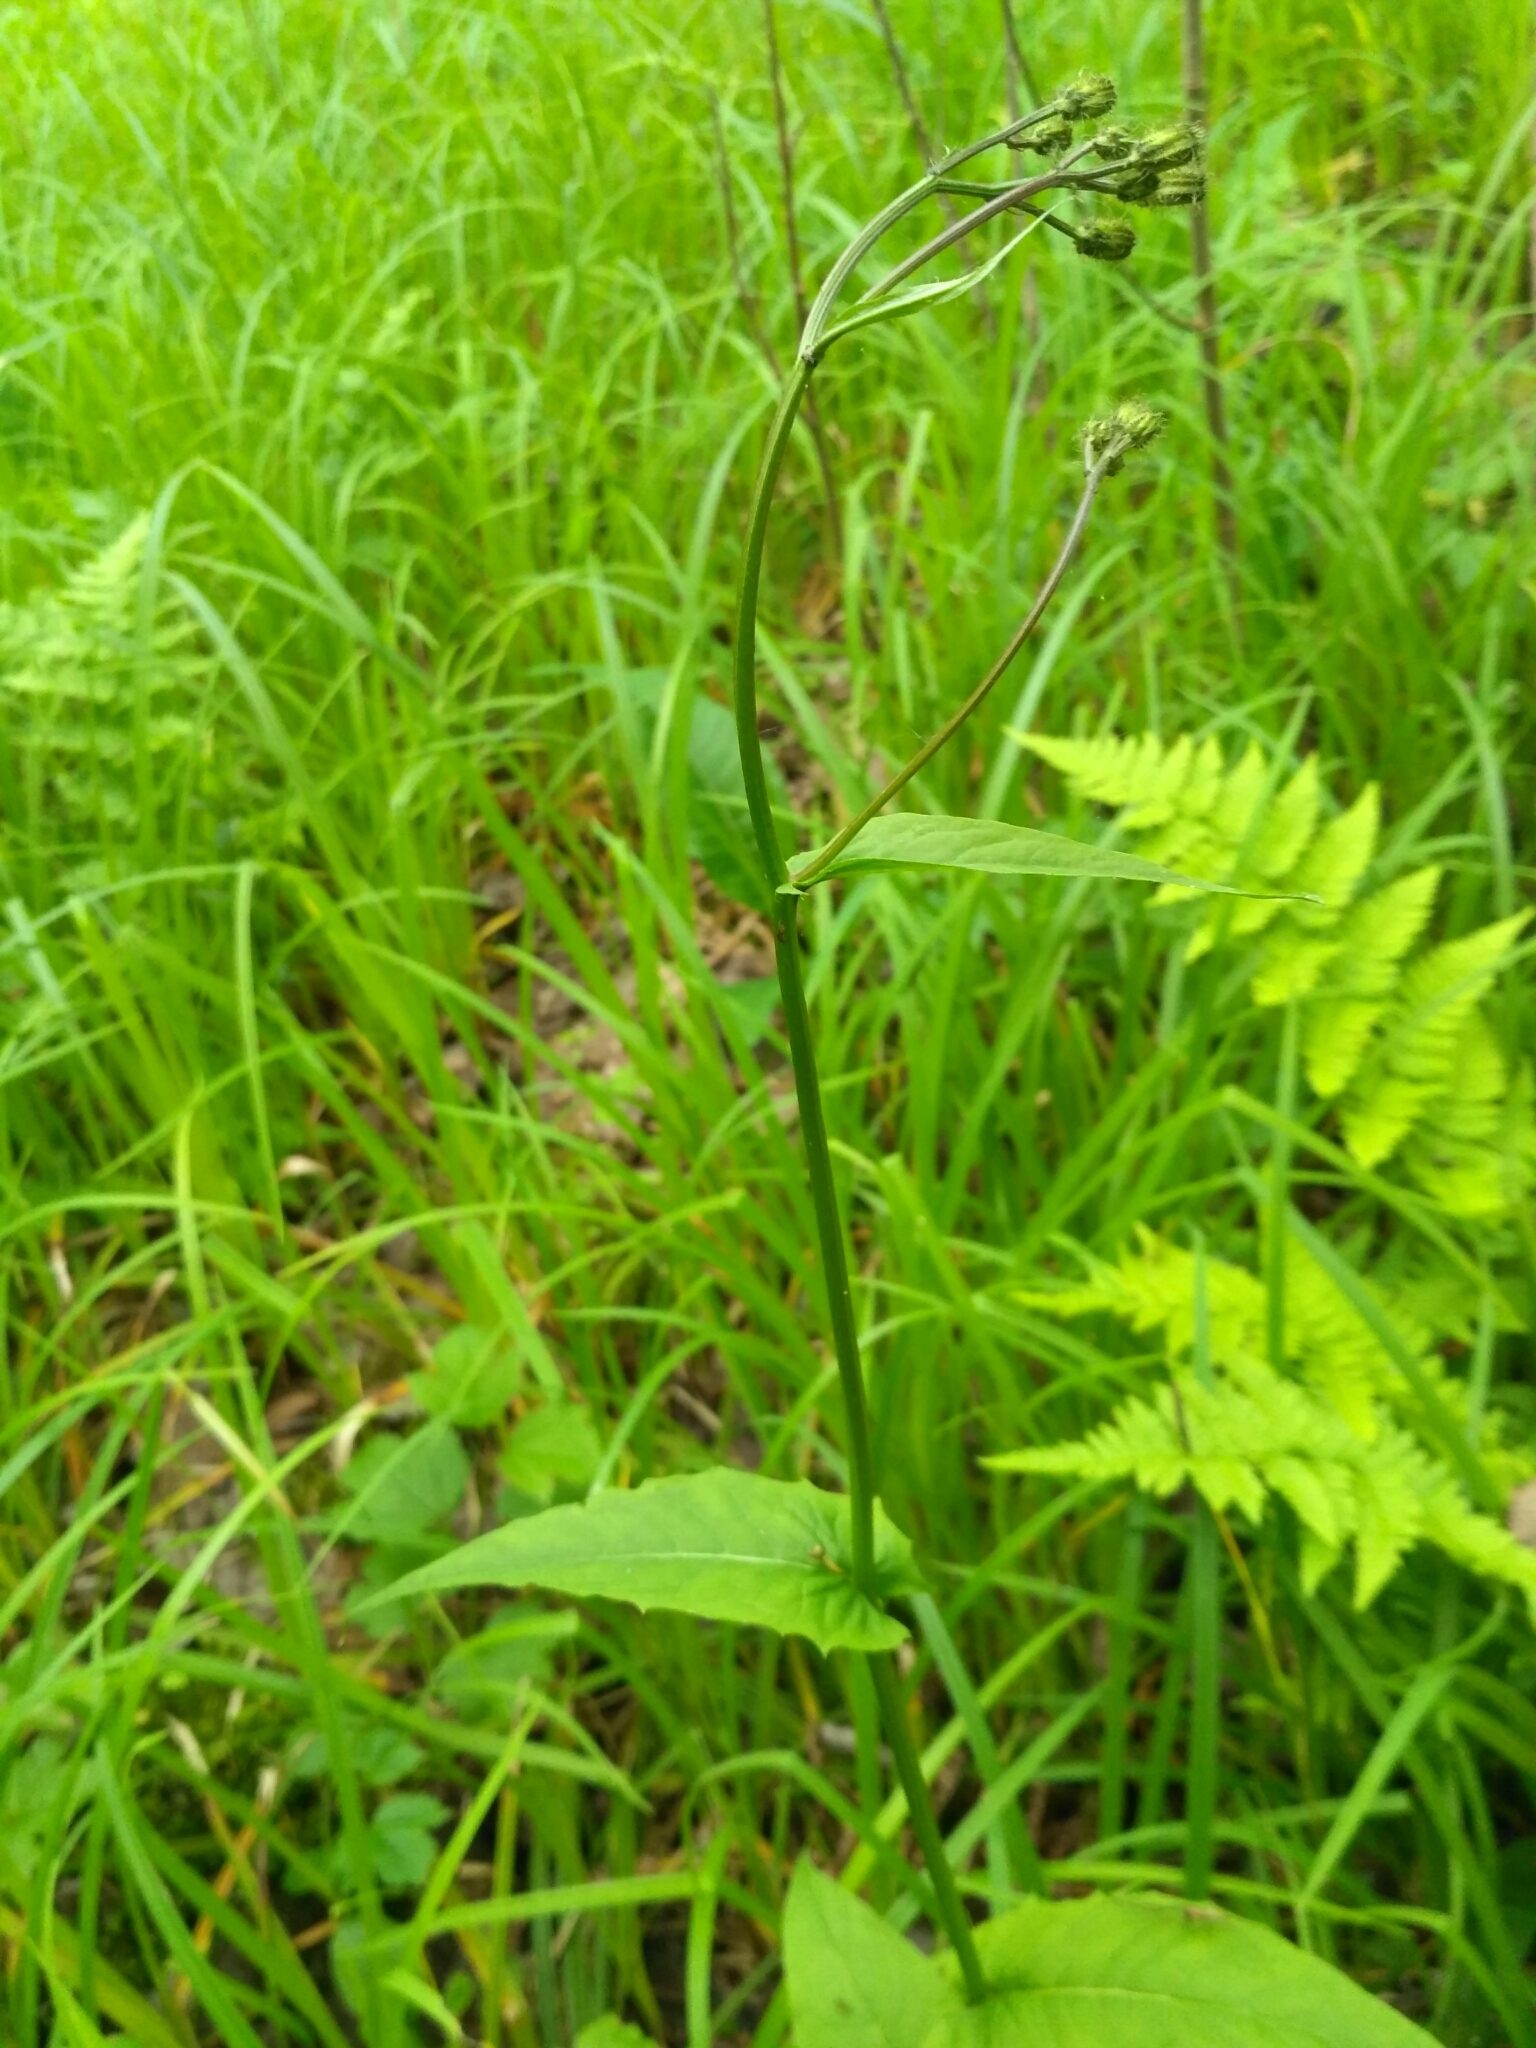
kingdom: Plantae
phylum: Tracheophyta
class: Magnoliopsida
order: Asterales
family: Asteraceae
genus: Crepis
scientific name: Crepis paludosa
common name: Marsh hawk's-beard
